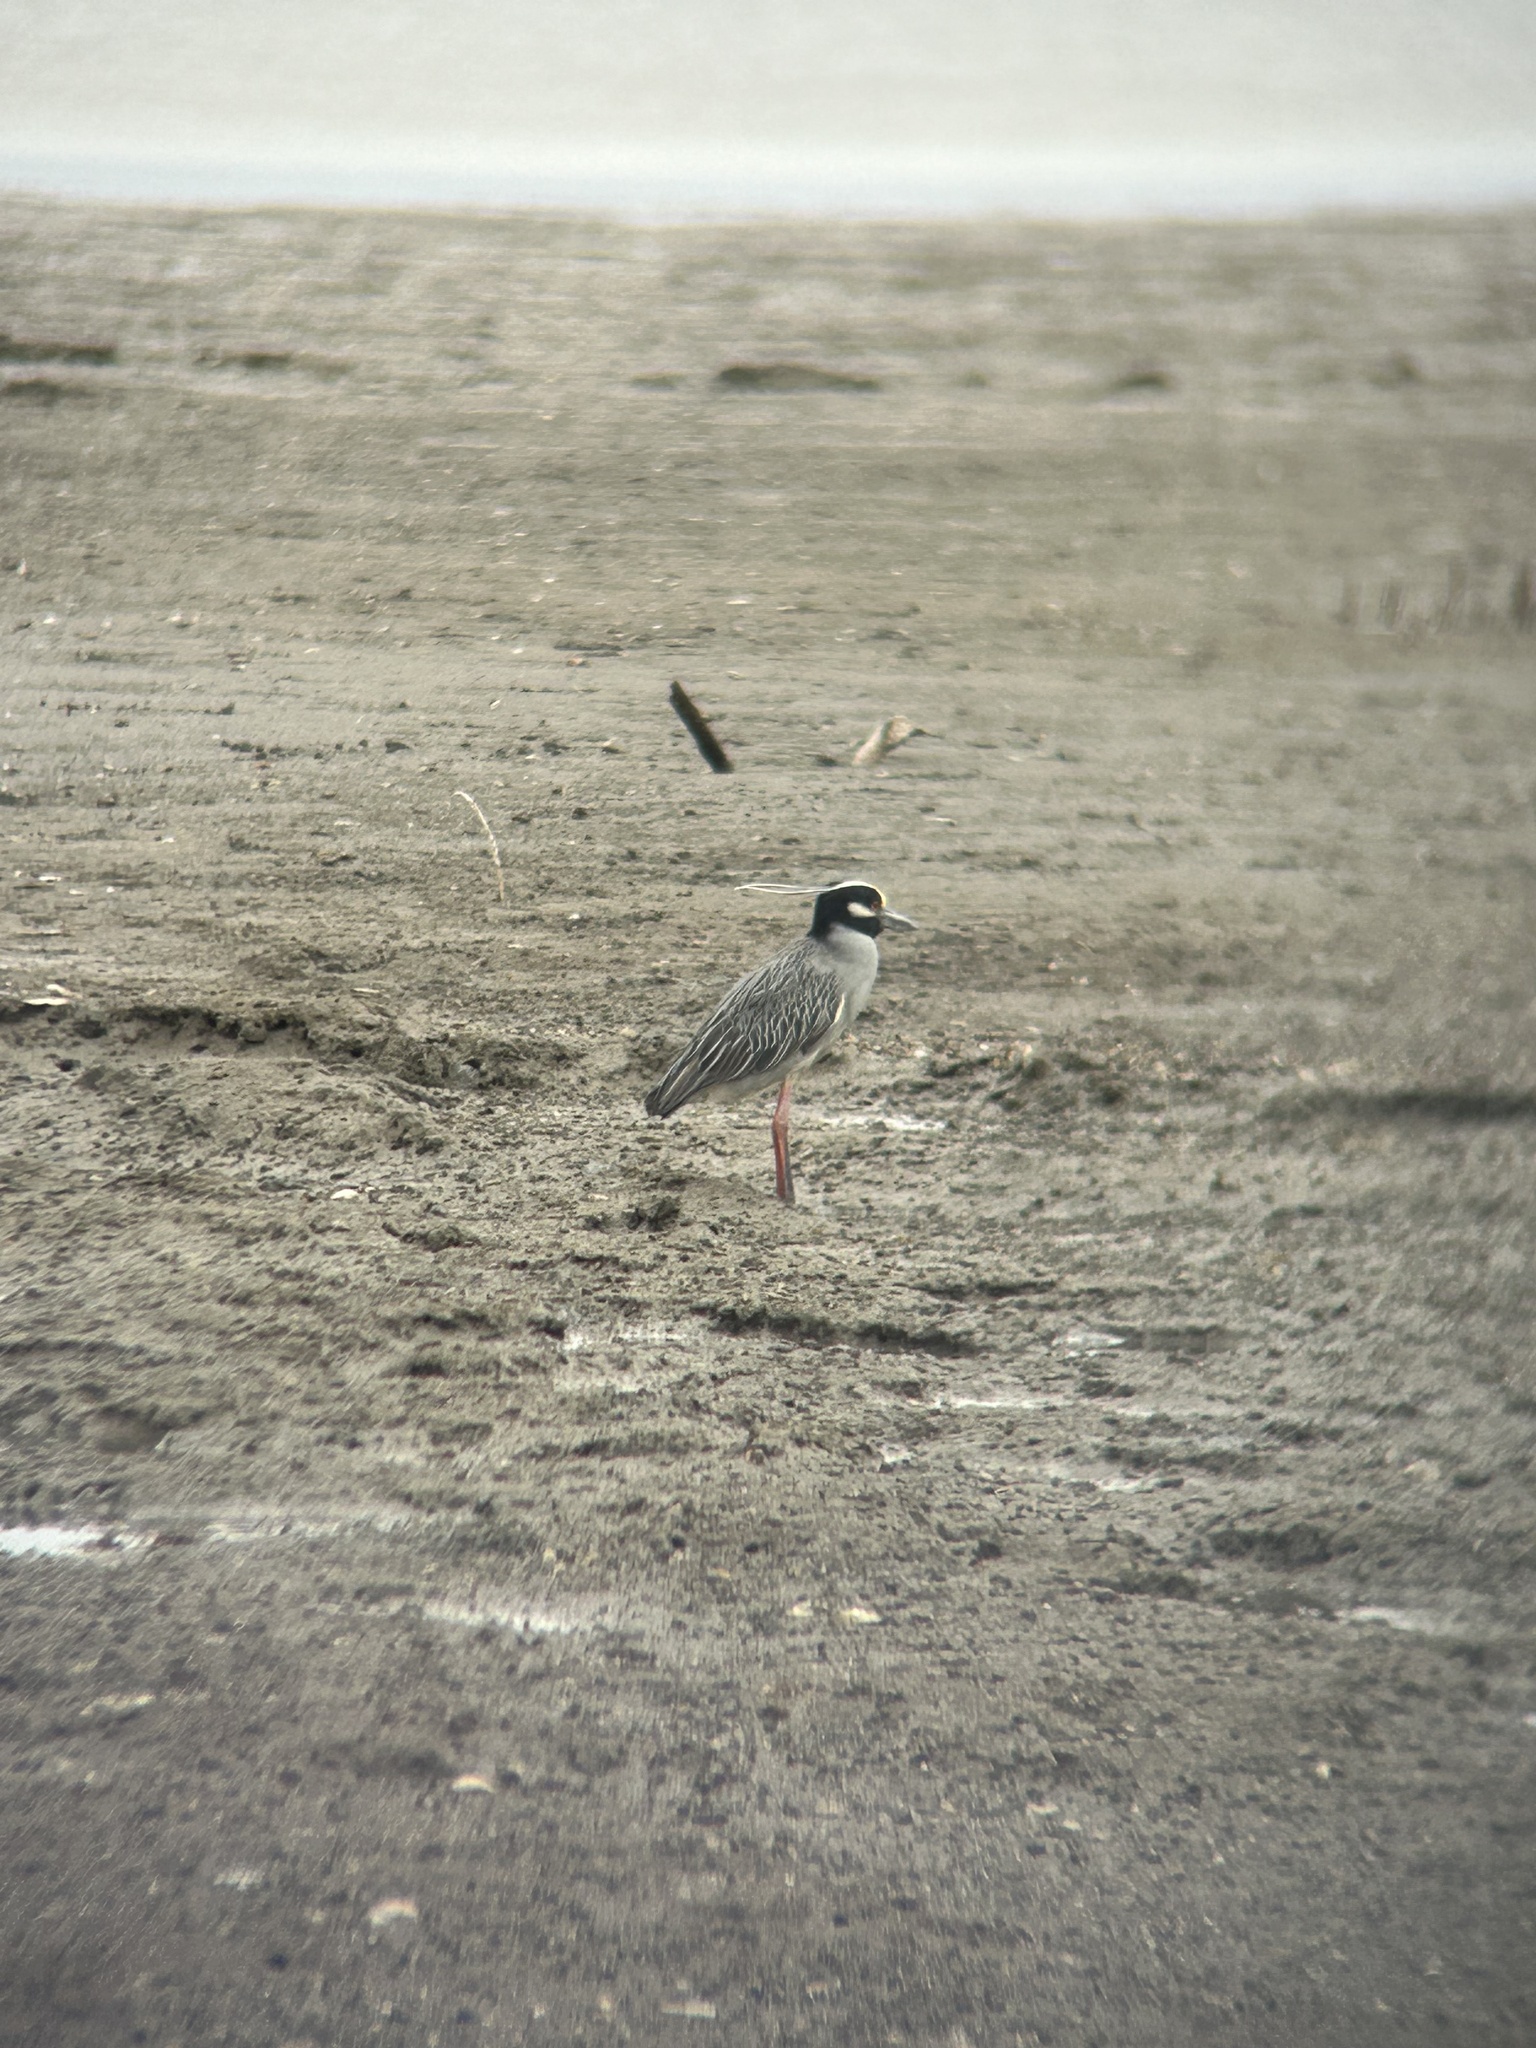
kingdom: Animalia
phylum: Chordata
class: Aves
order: Pelecaniformes
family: Ardeidae
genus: Nyctanassa
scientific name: Nyctanassa violacea
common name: Yellow-crowned night heron
